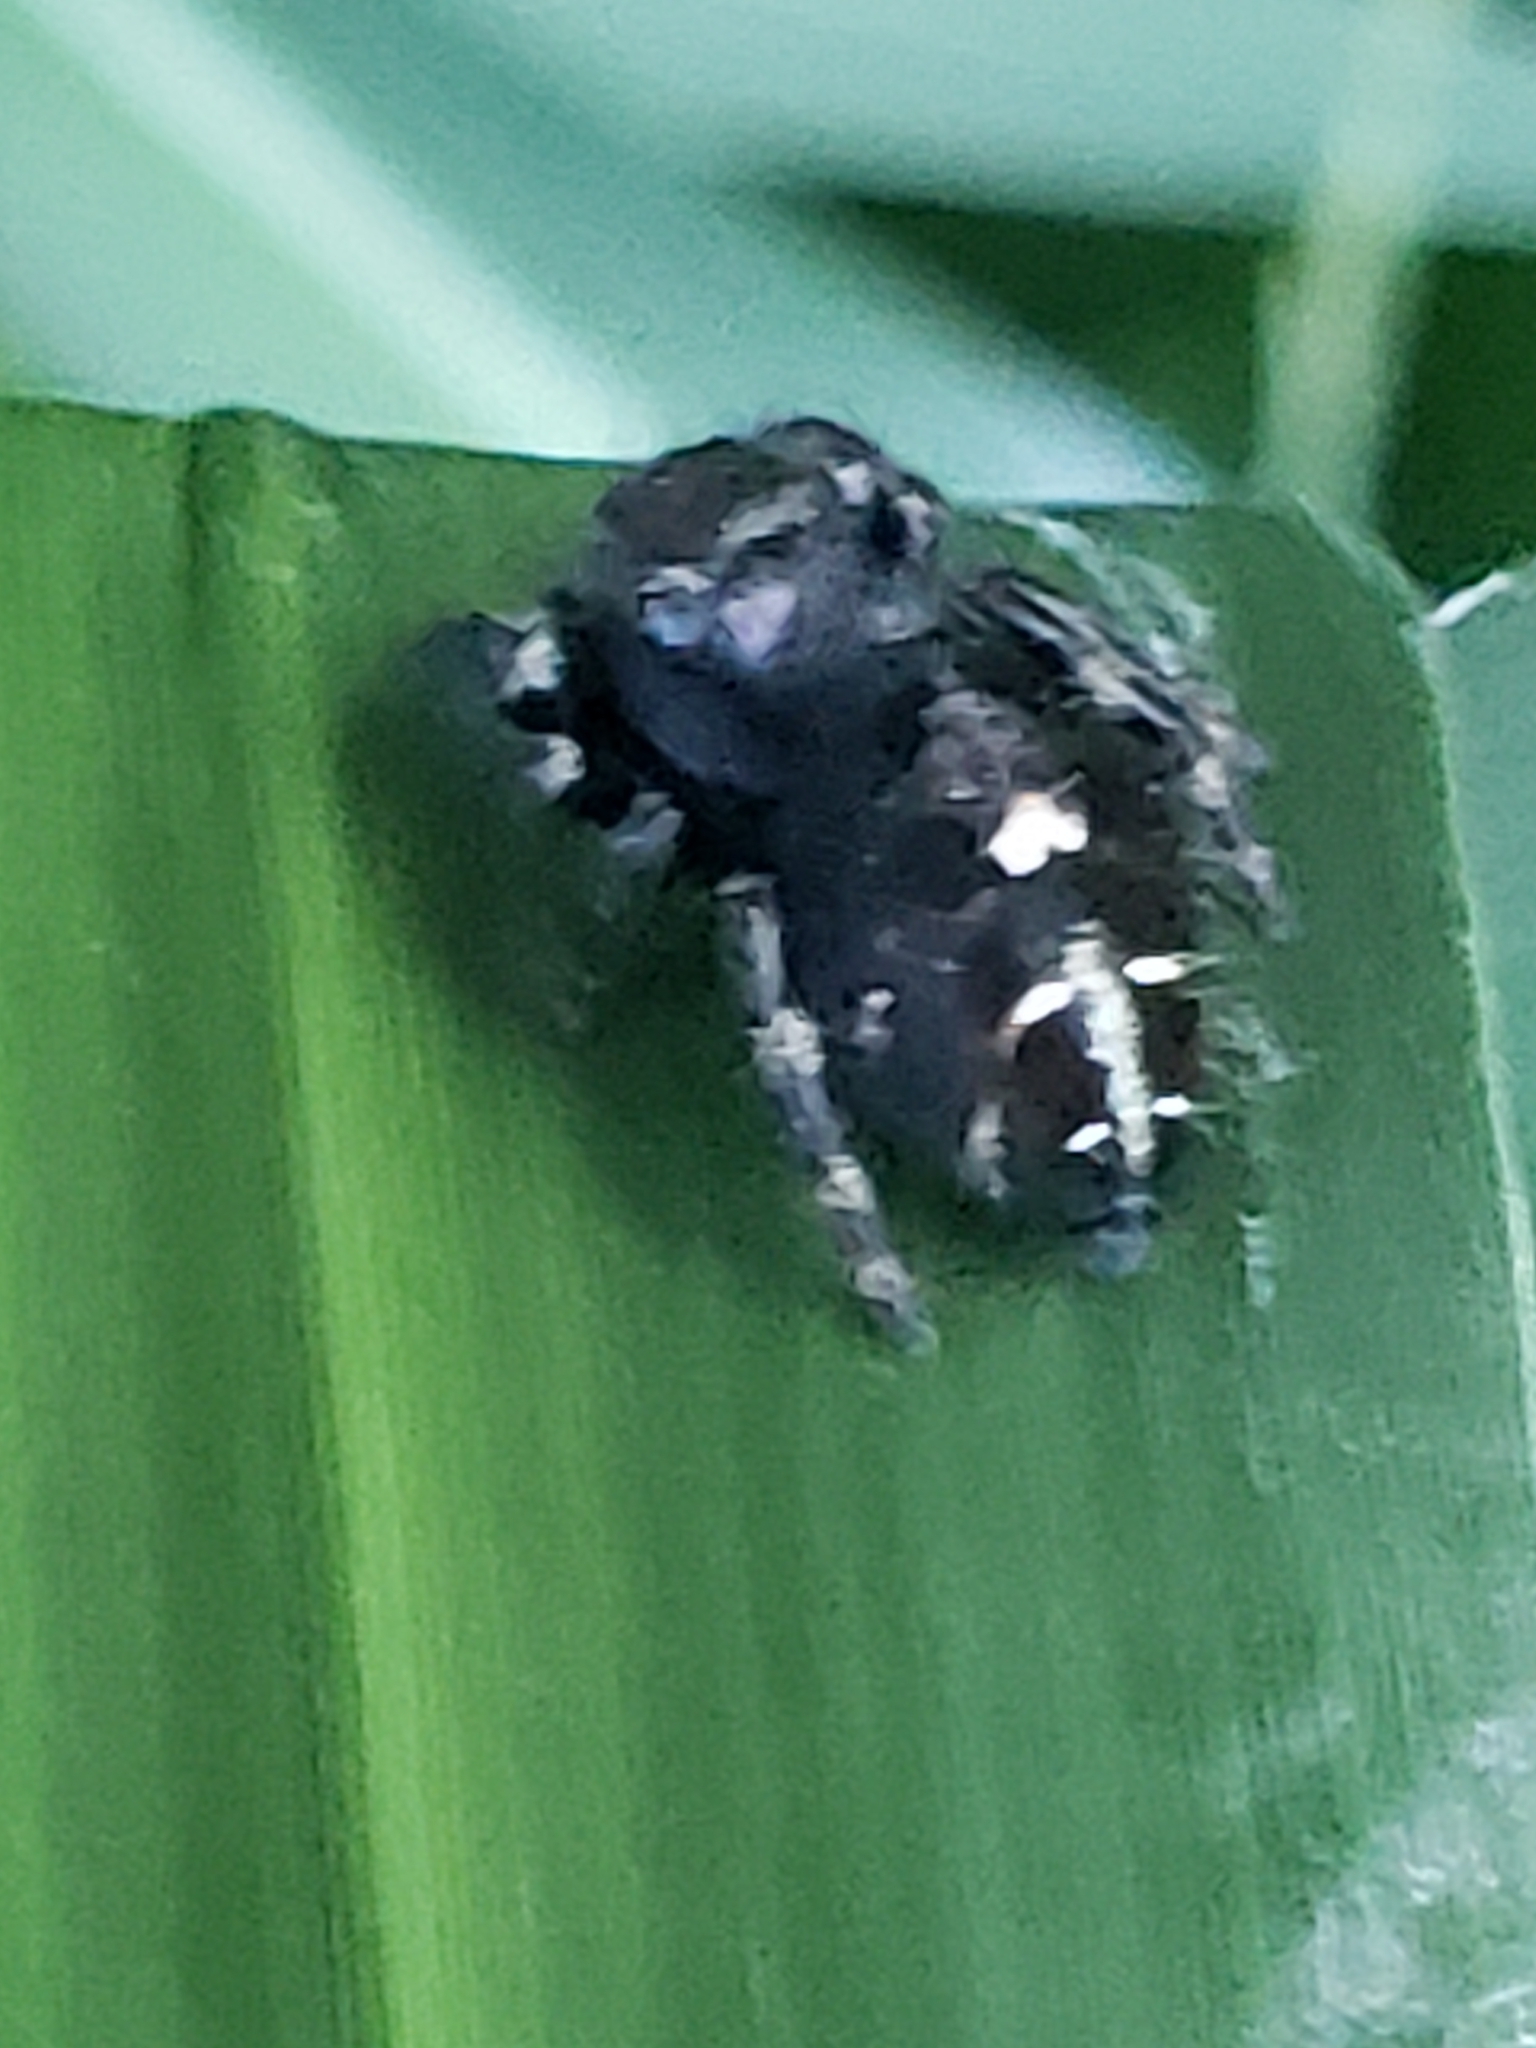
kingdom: Animalia
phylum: Arthropoda
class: Arachnida
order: Araneae
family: Salticidae
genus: Phidippus
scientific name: Phidippus audax
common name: Bold jumper
